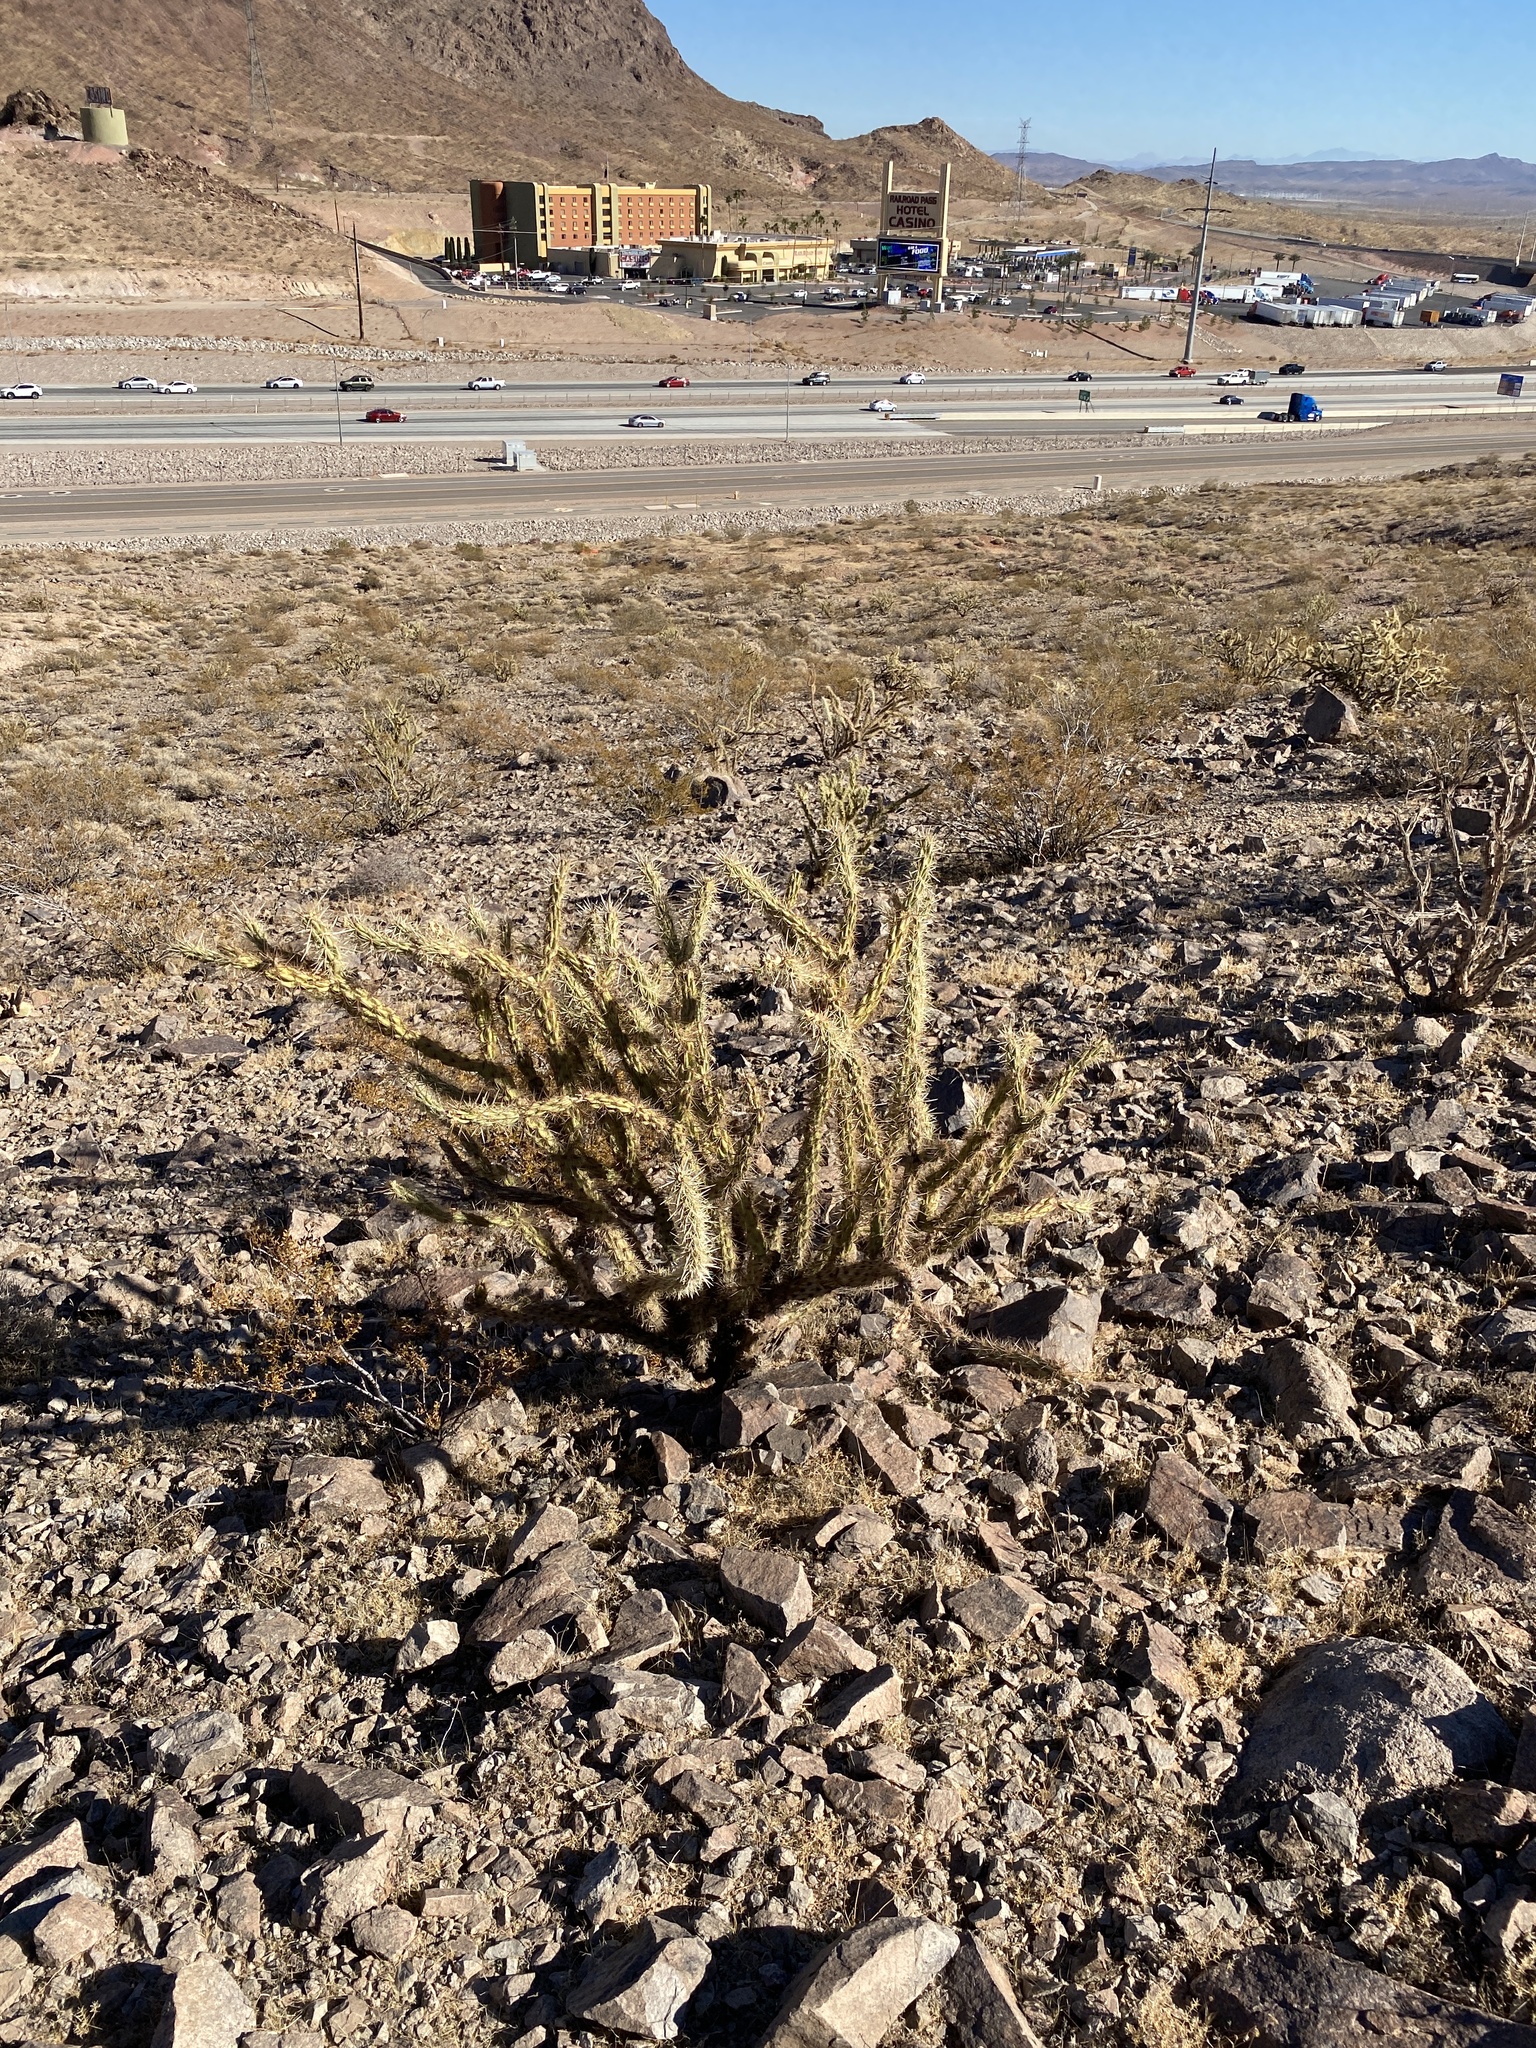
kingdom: Plantae
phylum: Tracheophyta
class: Magnoliopsida
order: Caryophyllales
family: Cactaceae
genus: Cylindropuntia
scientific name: Cylindropuntia acanthocarpa
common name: Buckhorn cholla
